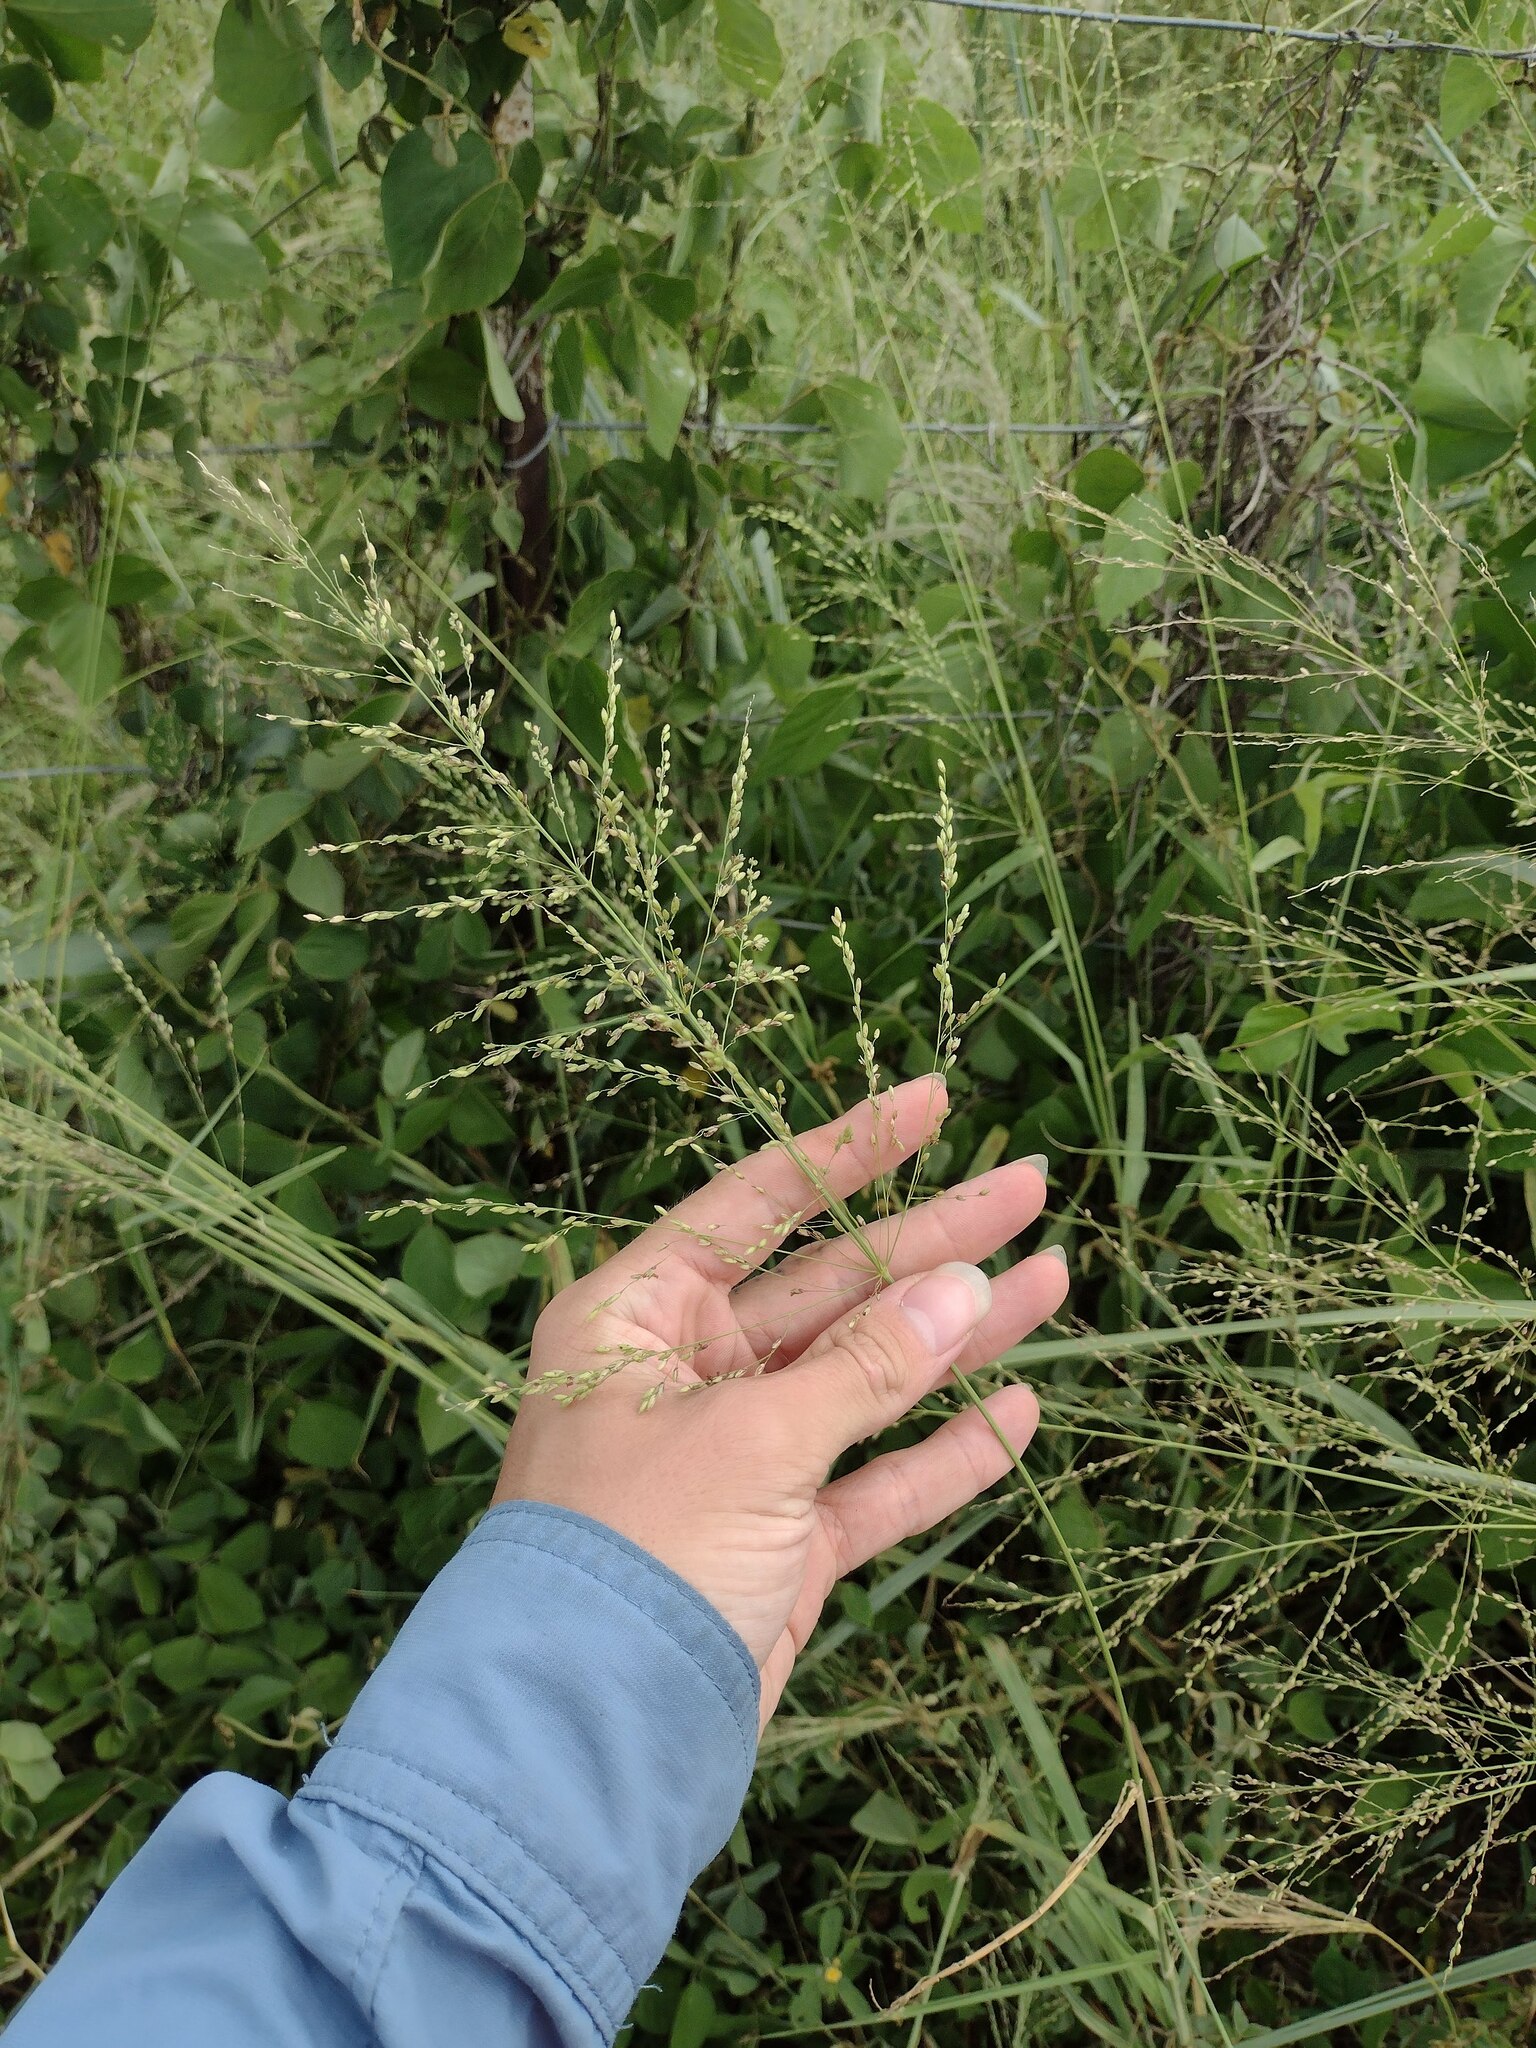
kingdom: Plantae
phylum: Tracheophyta
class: Liliopsida
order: Poales
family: Poaceae
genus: Megathyrsus
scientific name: Megathyrsus maximus
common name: Guineagrass
